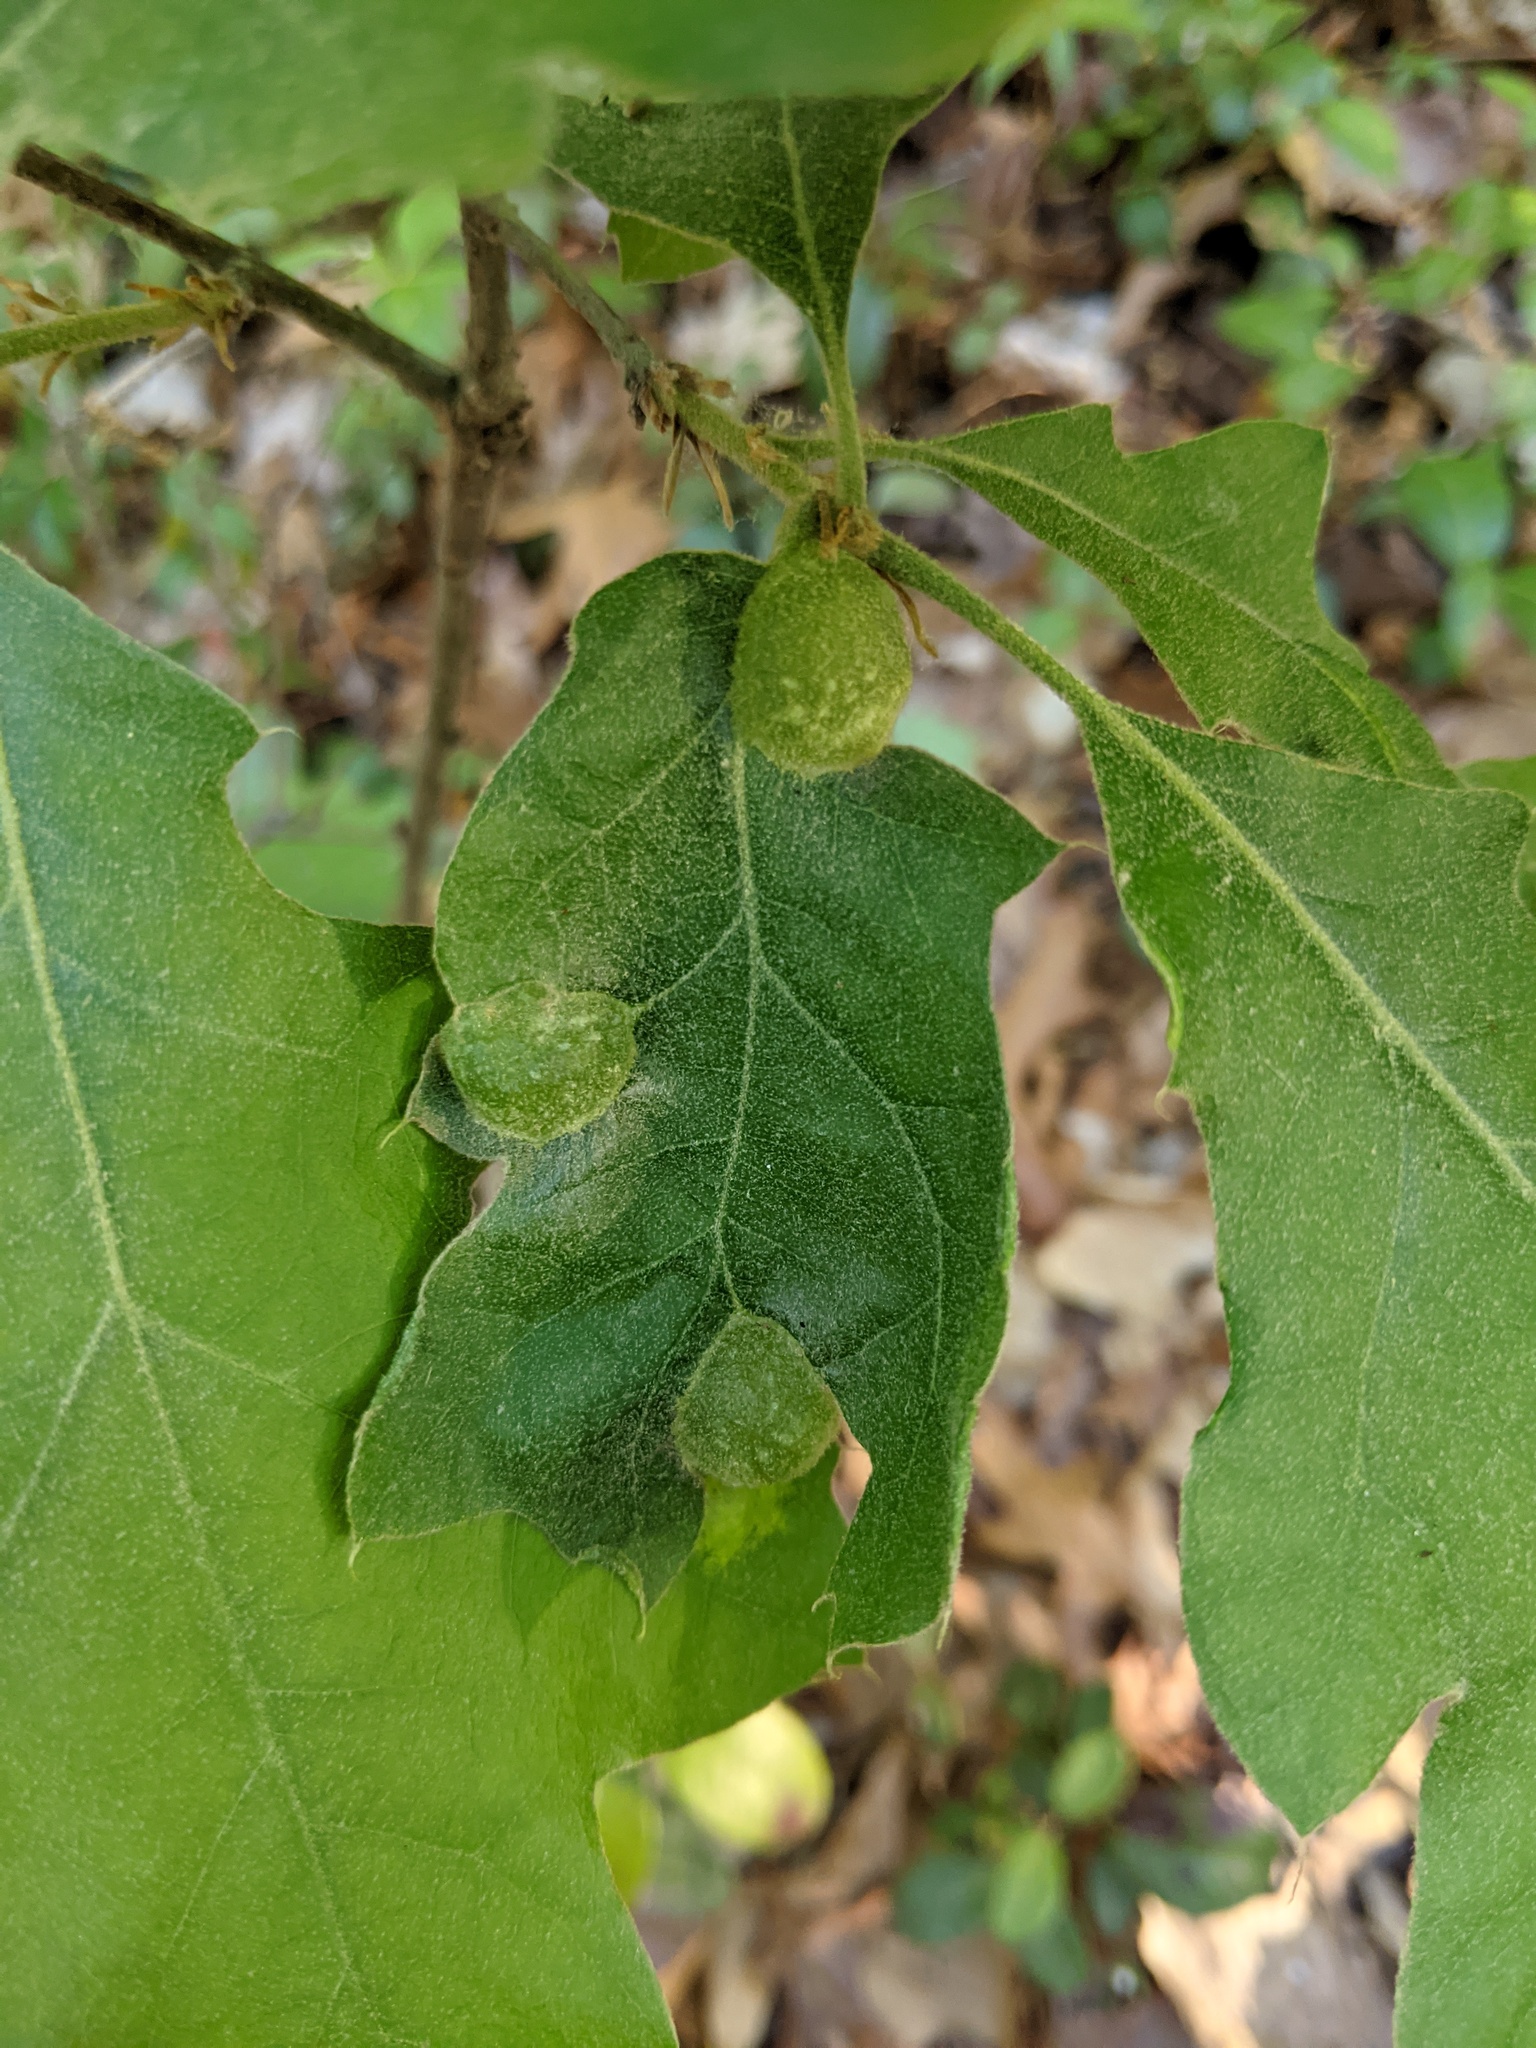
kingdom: Animalia
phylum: Arthropoda
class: Insecta
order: Hymenoptera
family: Cynipidae
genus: Dryocosmus
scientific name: Dryocosmus quercuspalustris
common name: Succulent oak gall wasp
